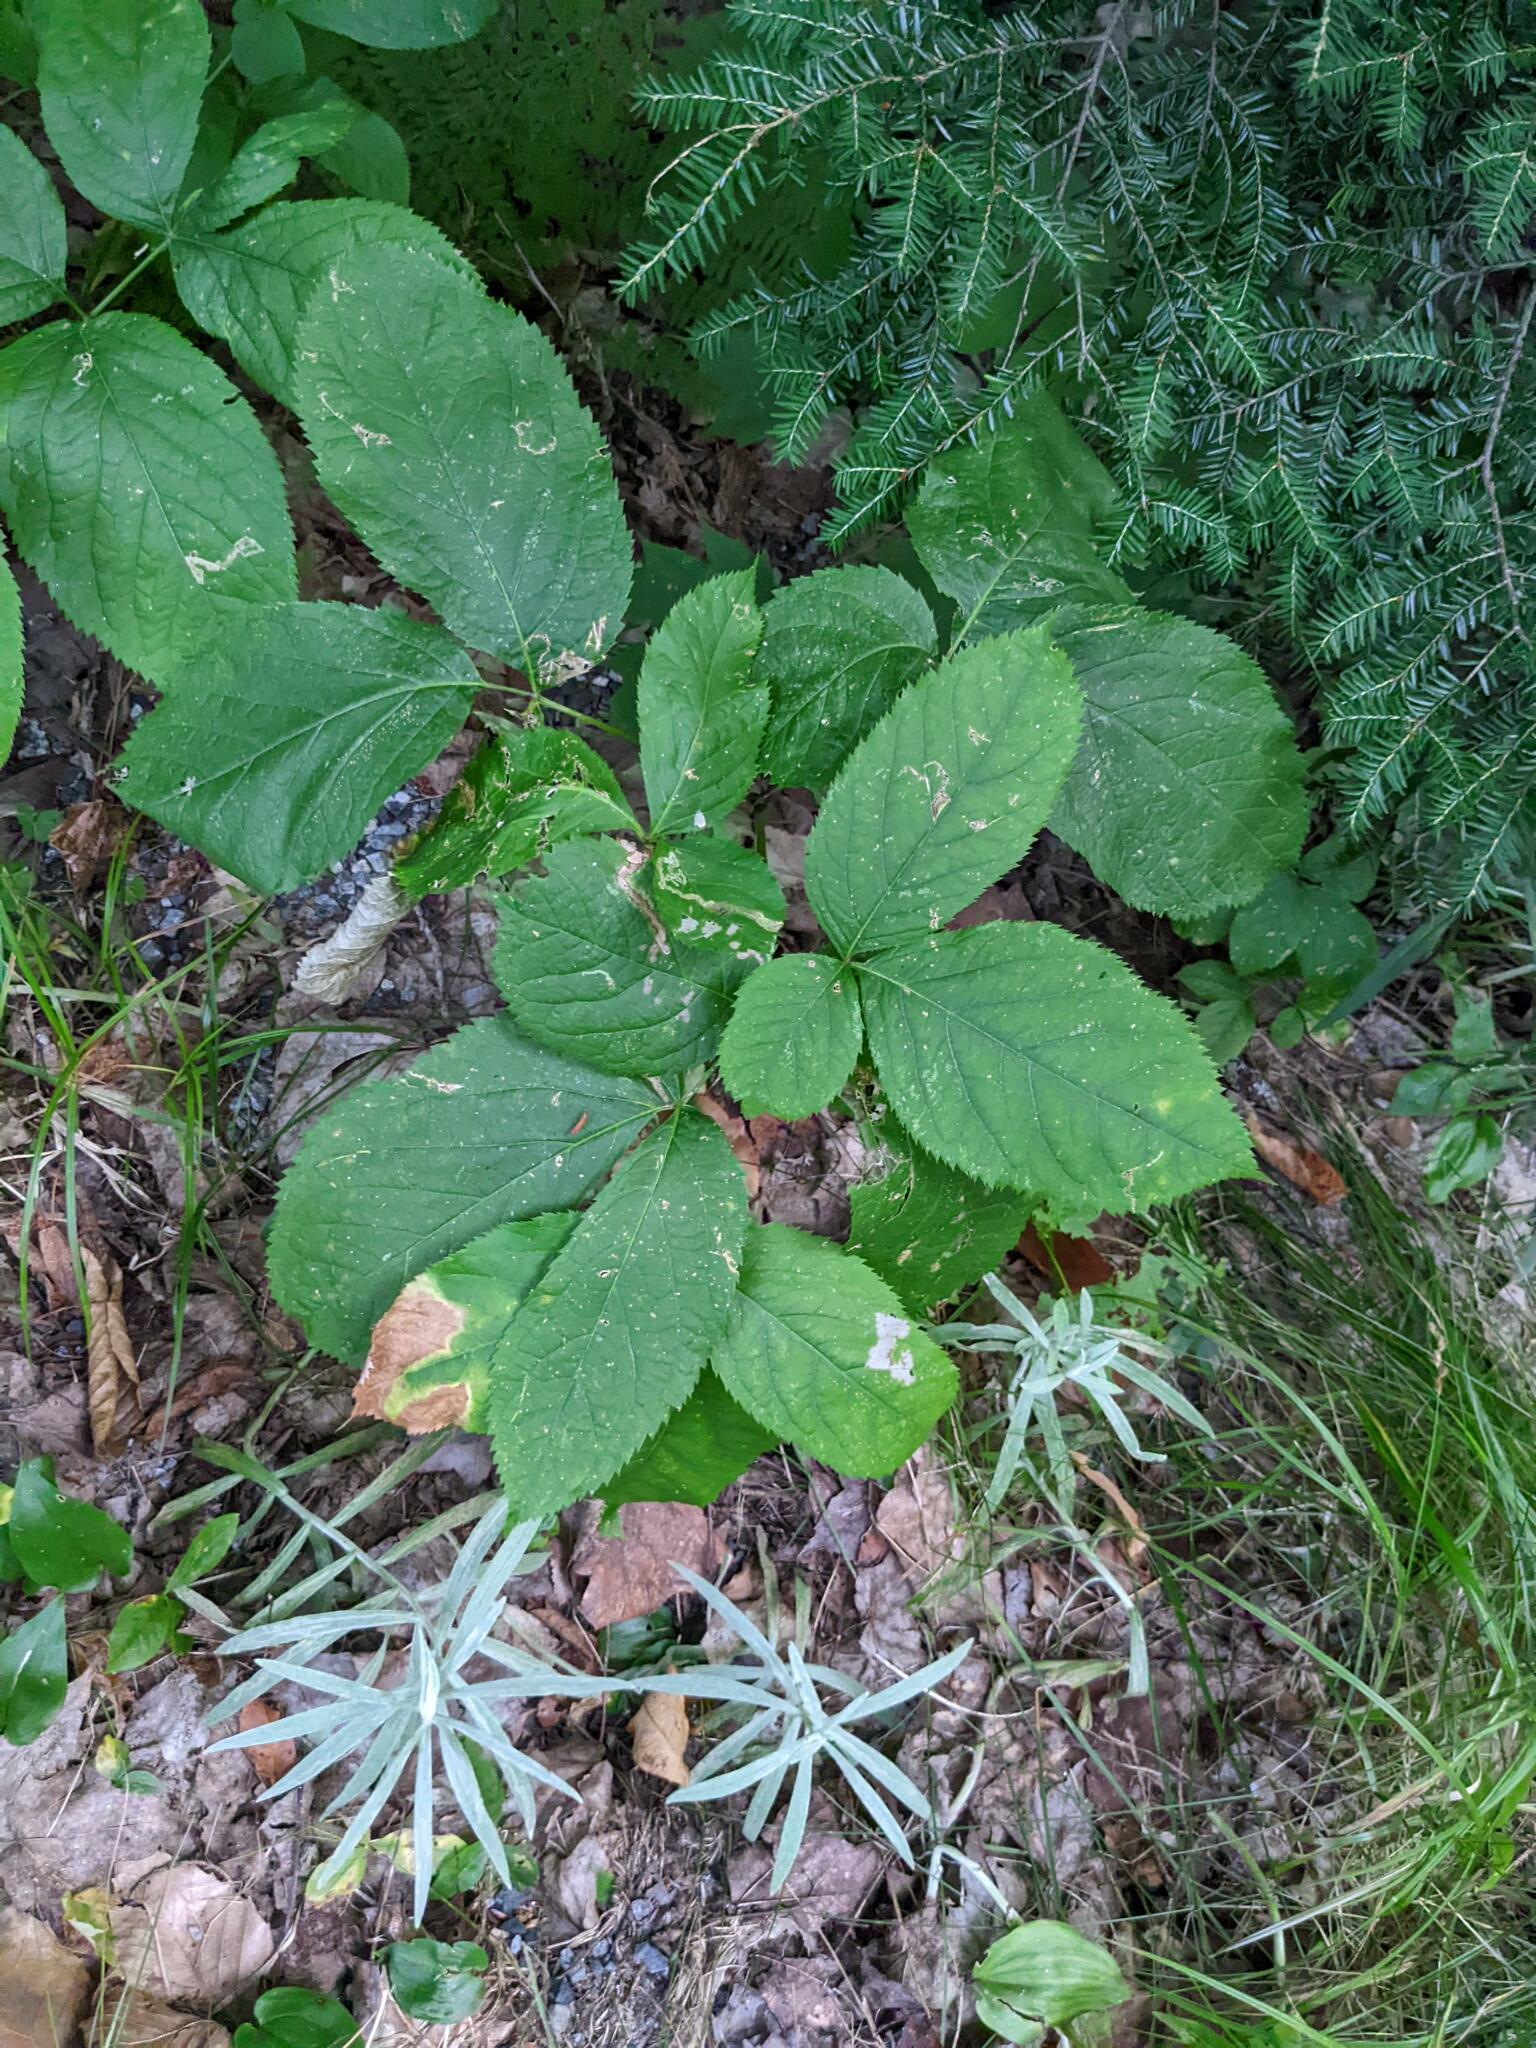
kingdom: Plantae
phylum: Tracheophyta
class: Magnoliopsida
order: Apiales
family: Araliaceae
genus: Aralia
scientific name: Aralia nudicaulis
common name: Wild sarsaparilla
